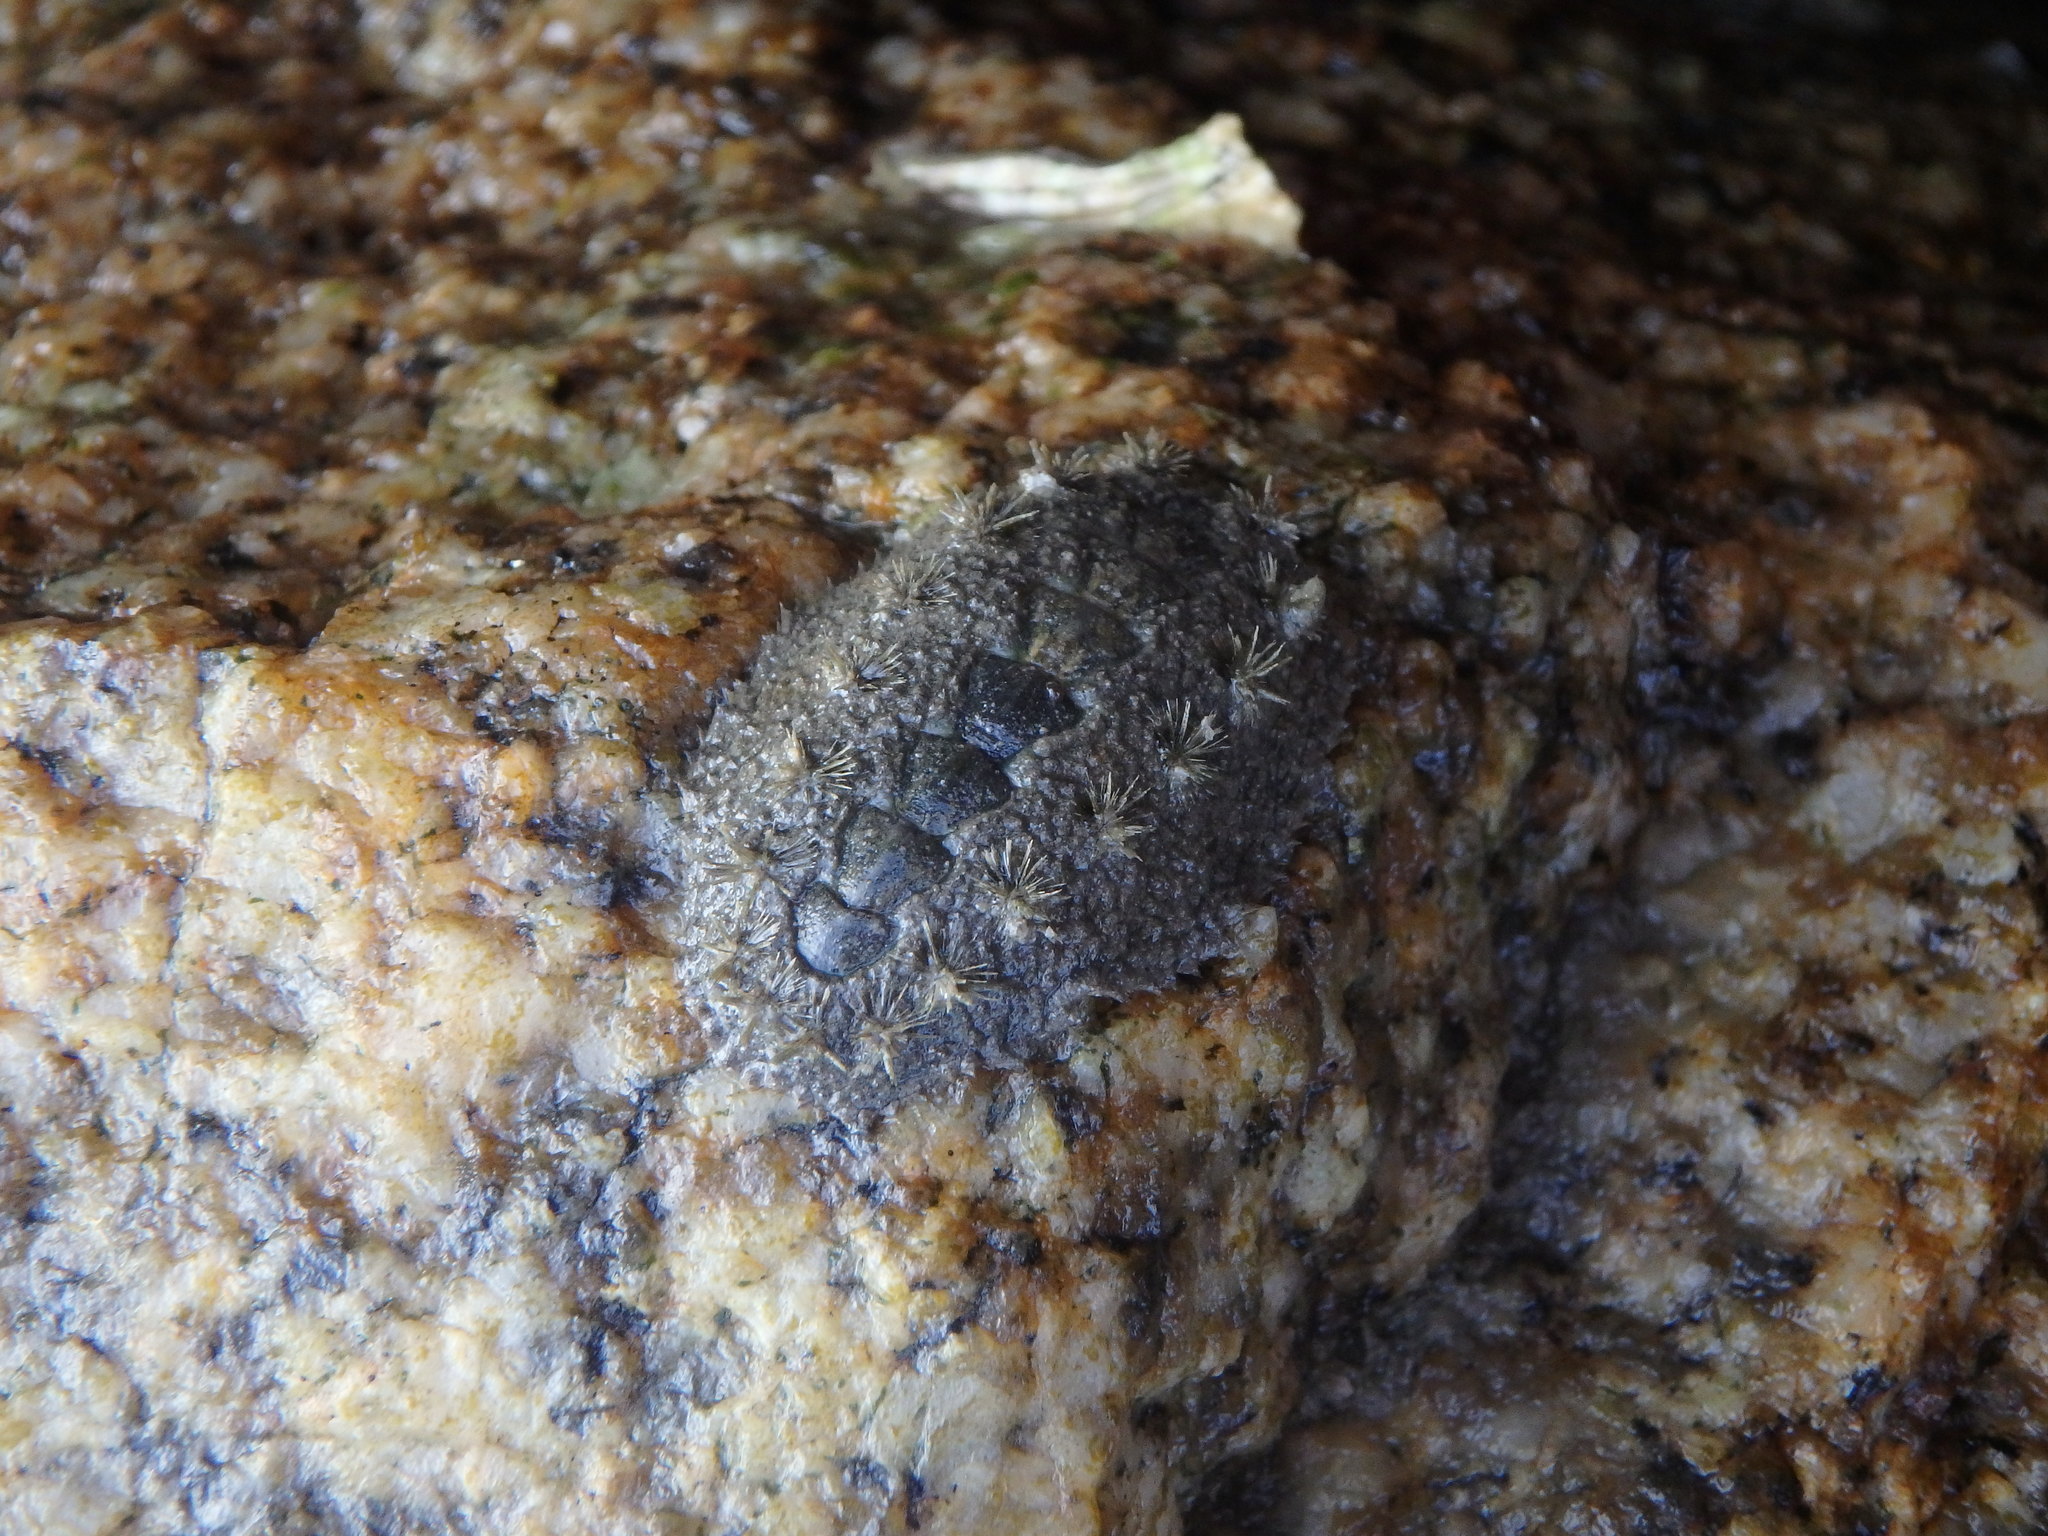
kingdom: Animalia
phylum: Mollusca
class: Polyplacophora
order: Chitonida
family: Acanthochitonidae
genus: Acanthochitona
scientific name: Acanthochitona defilippii
